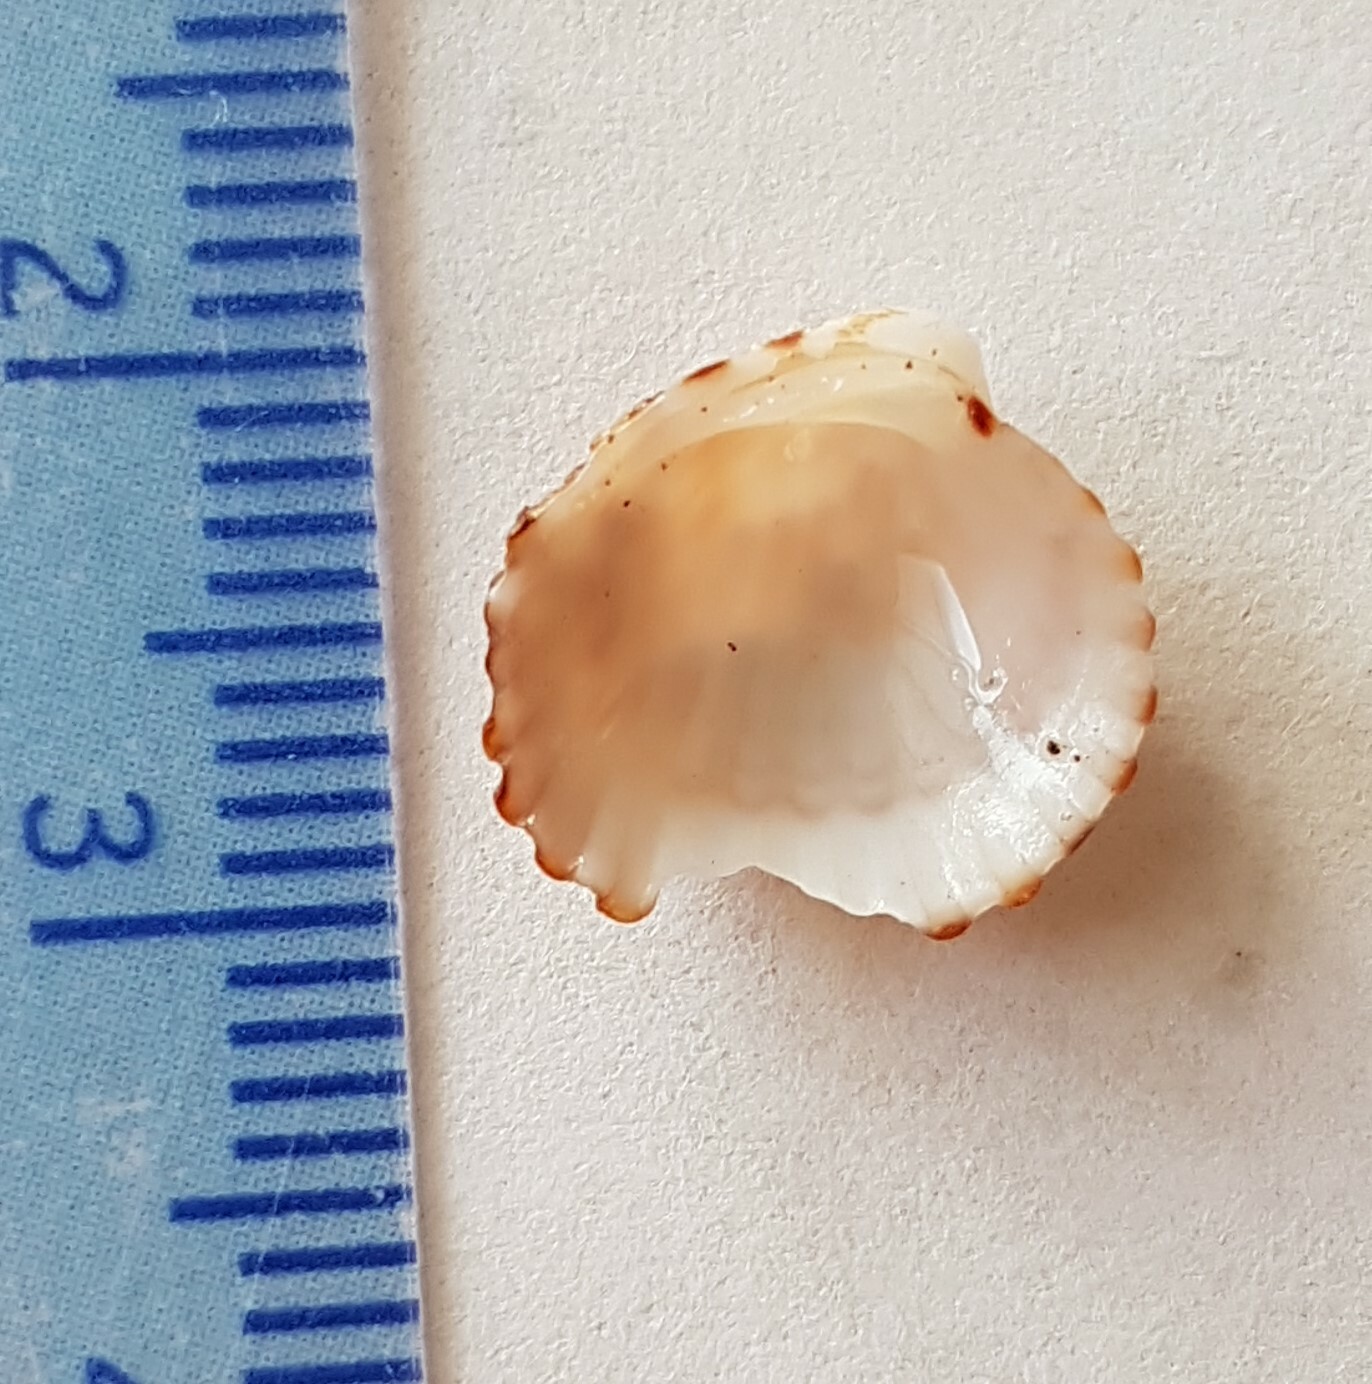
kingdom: Animalia
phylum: Mollusca
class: Bivalvia
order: Carditida
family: Carditidae
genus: Cardites
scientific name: Cardites antiquatus
